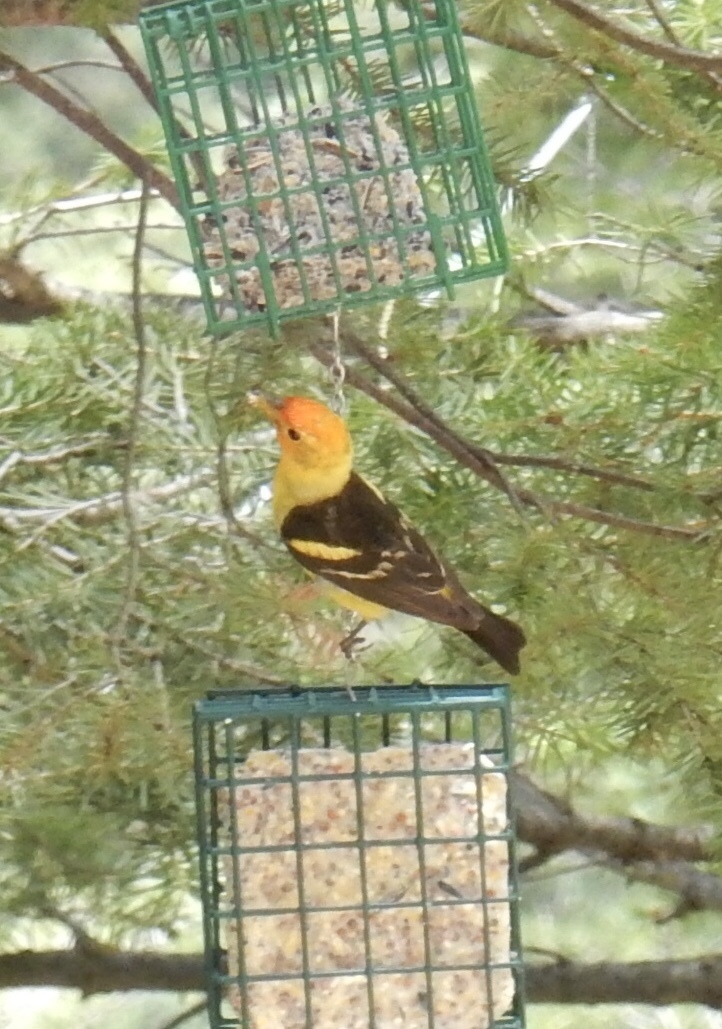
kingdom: Animalia
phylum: Chordata
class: Aves
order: Passeriformes
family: Cardinalidae
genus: Piranga
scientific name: Piranga ludoviciana
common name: Western tanager
